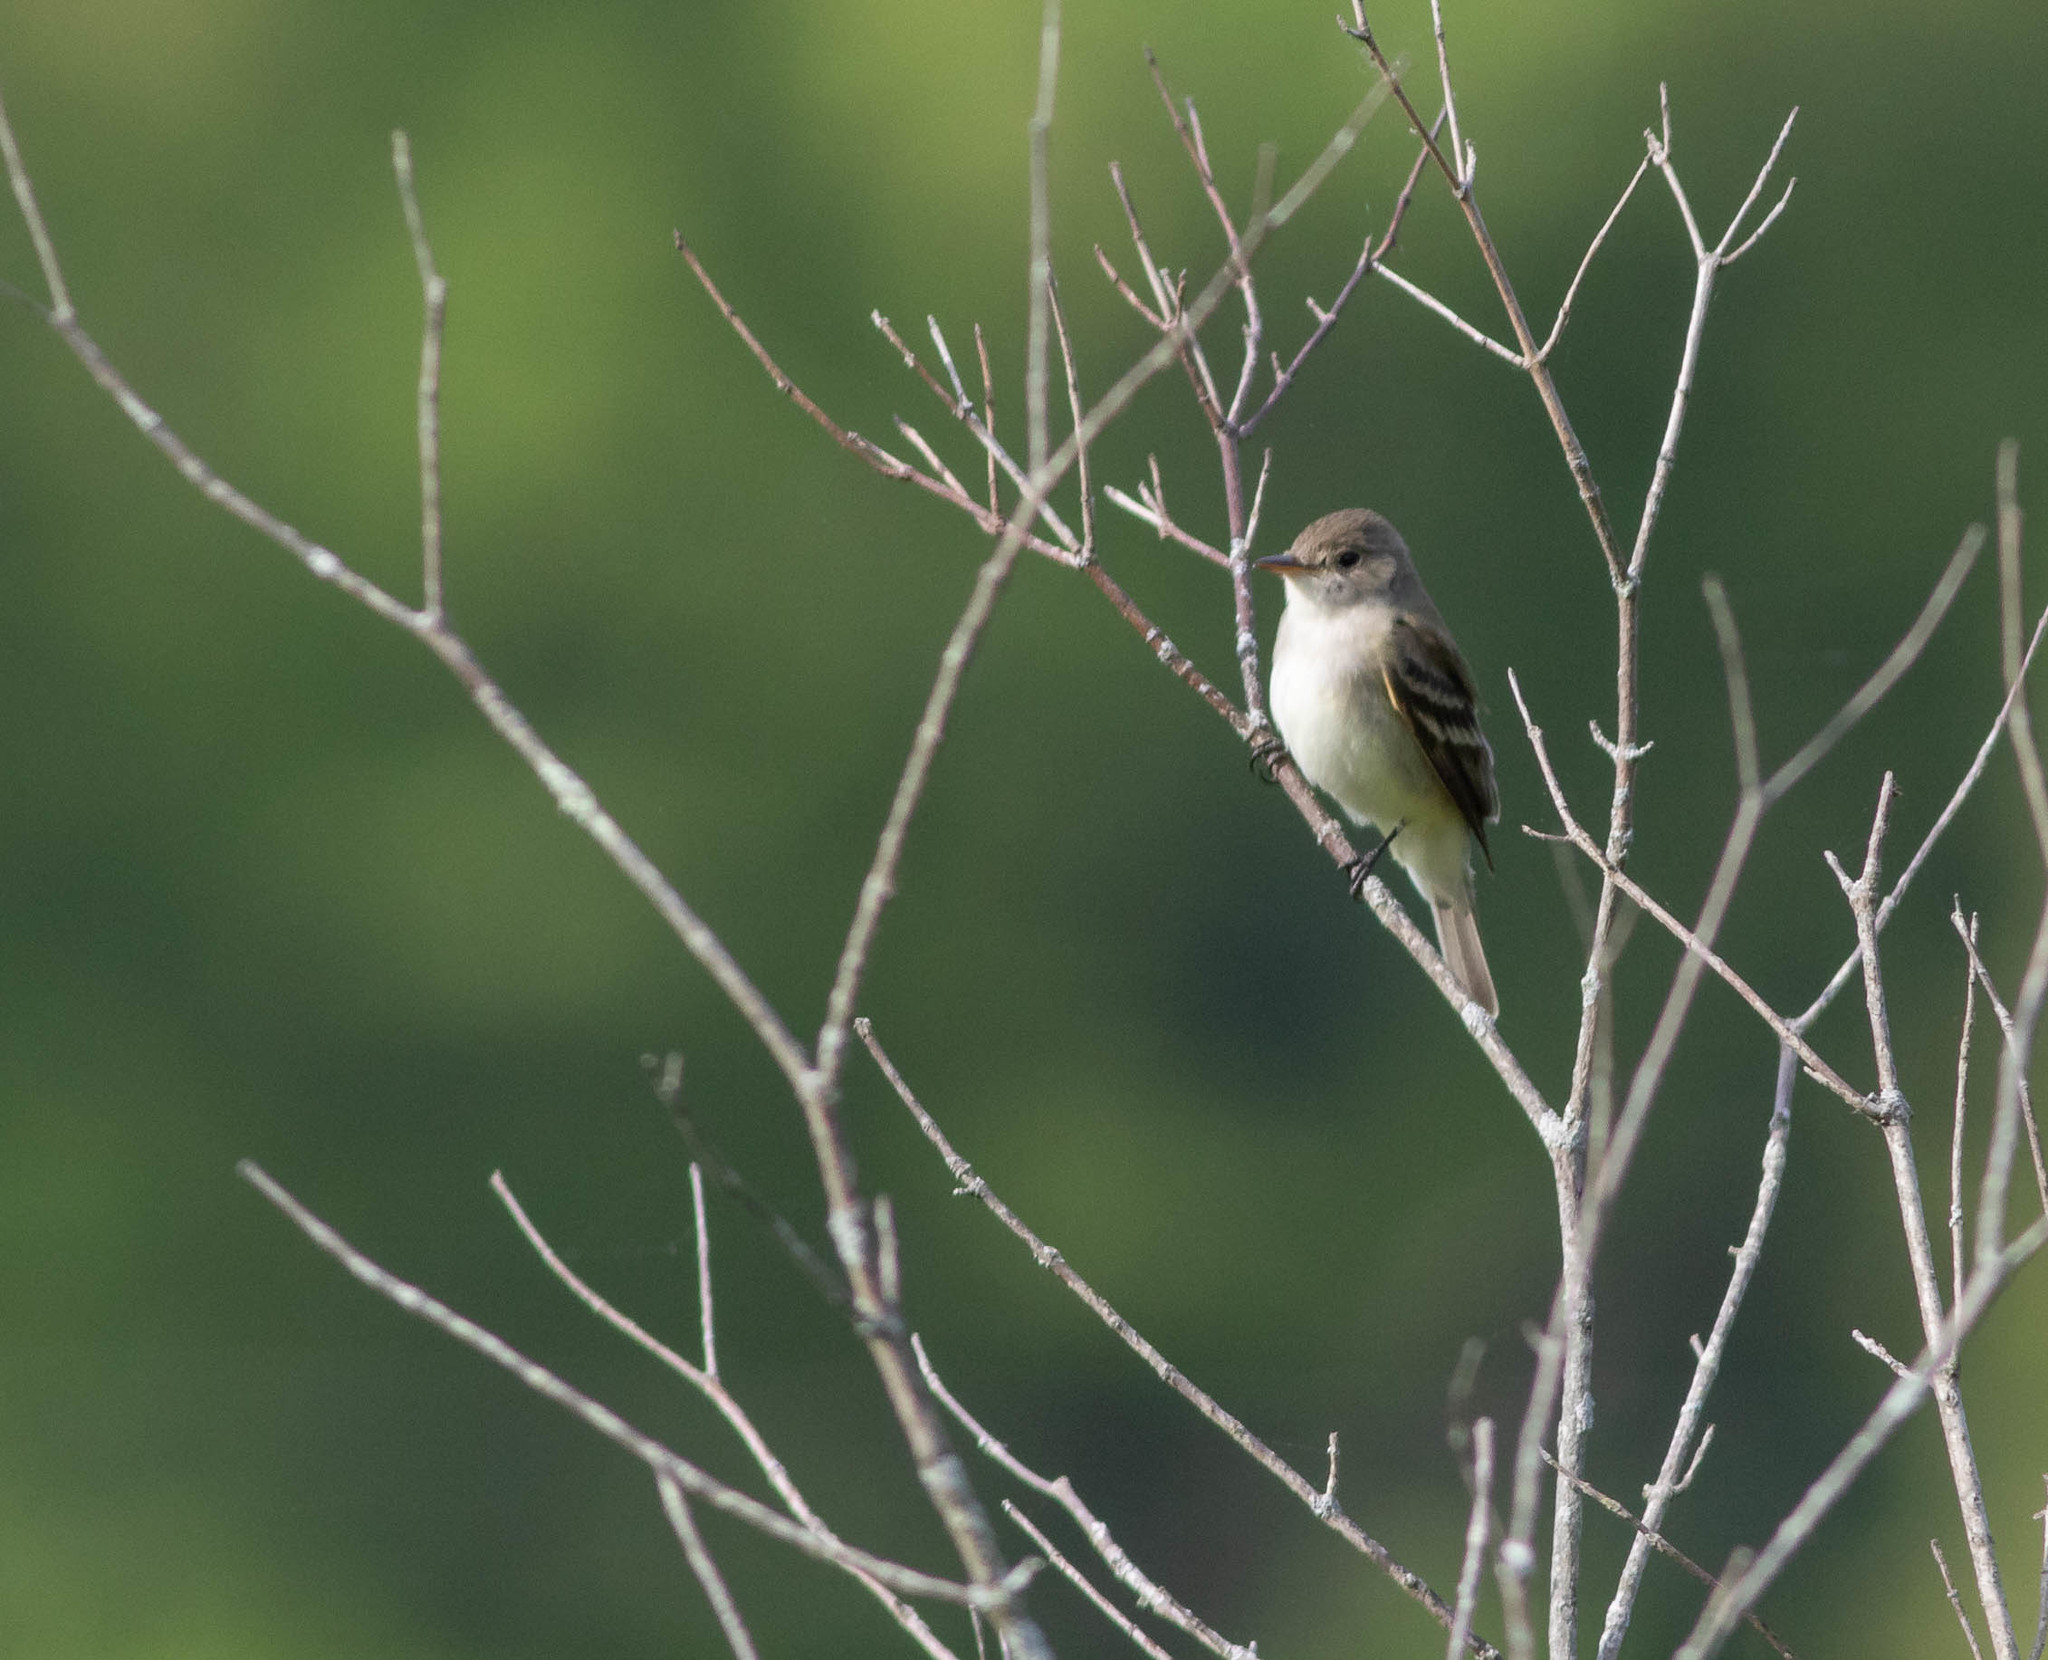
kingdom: Animalia
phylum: Chordata
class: Aves
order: Passeriformes
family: Tyrannidae
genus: Empidonax
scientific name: Empidonax traillii
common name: Willow flycatcher
